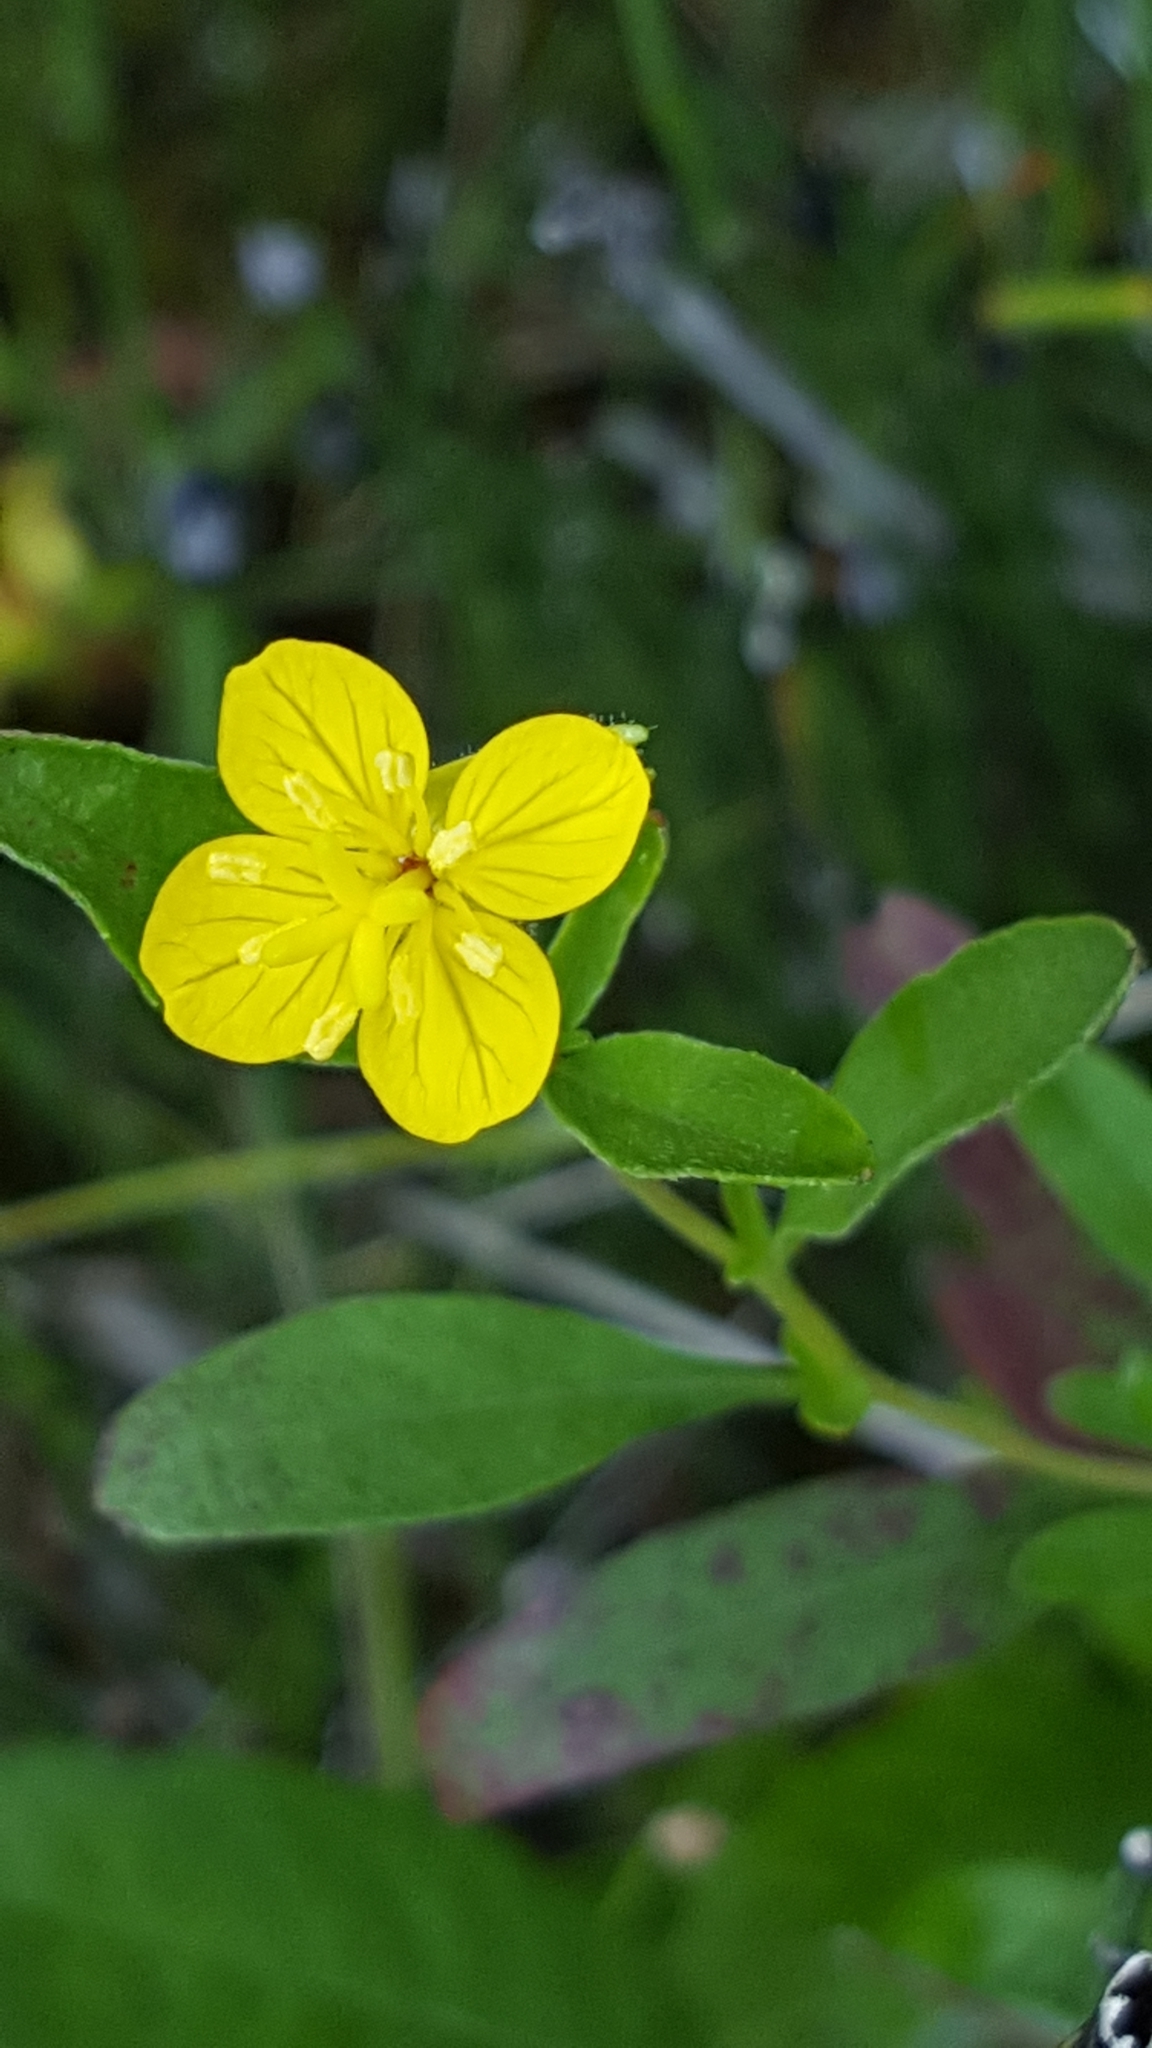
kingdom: Plantae
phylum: Tracheophyta
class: Magnoliopsida
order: Myrtales
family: Onagraceae
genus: Oenothera
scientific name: Oenothera perennis
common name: Small sundrops
